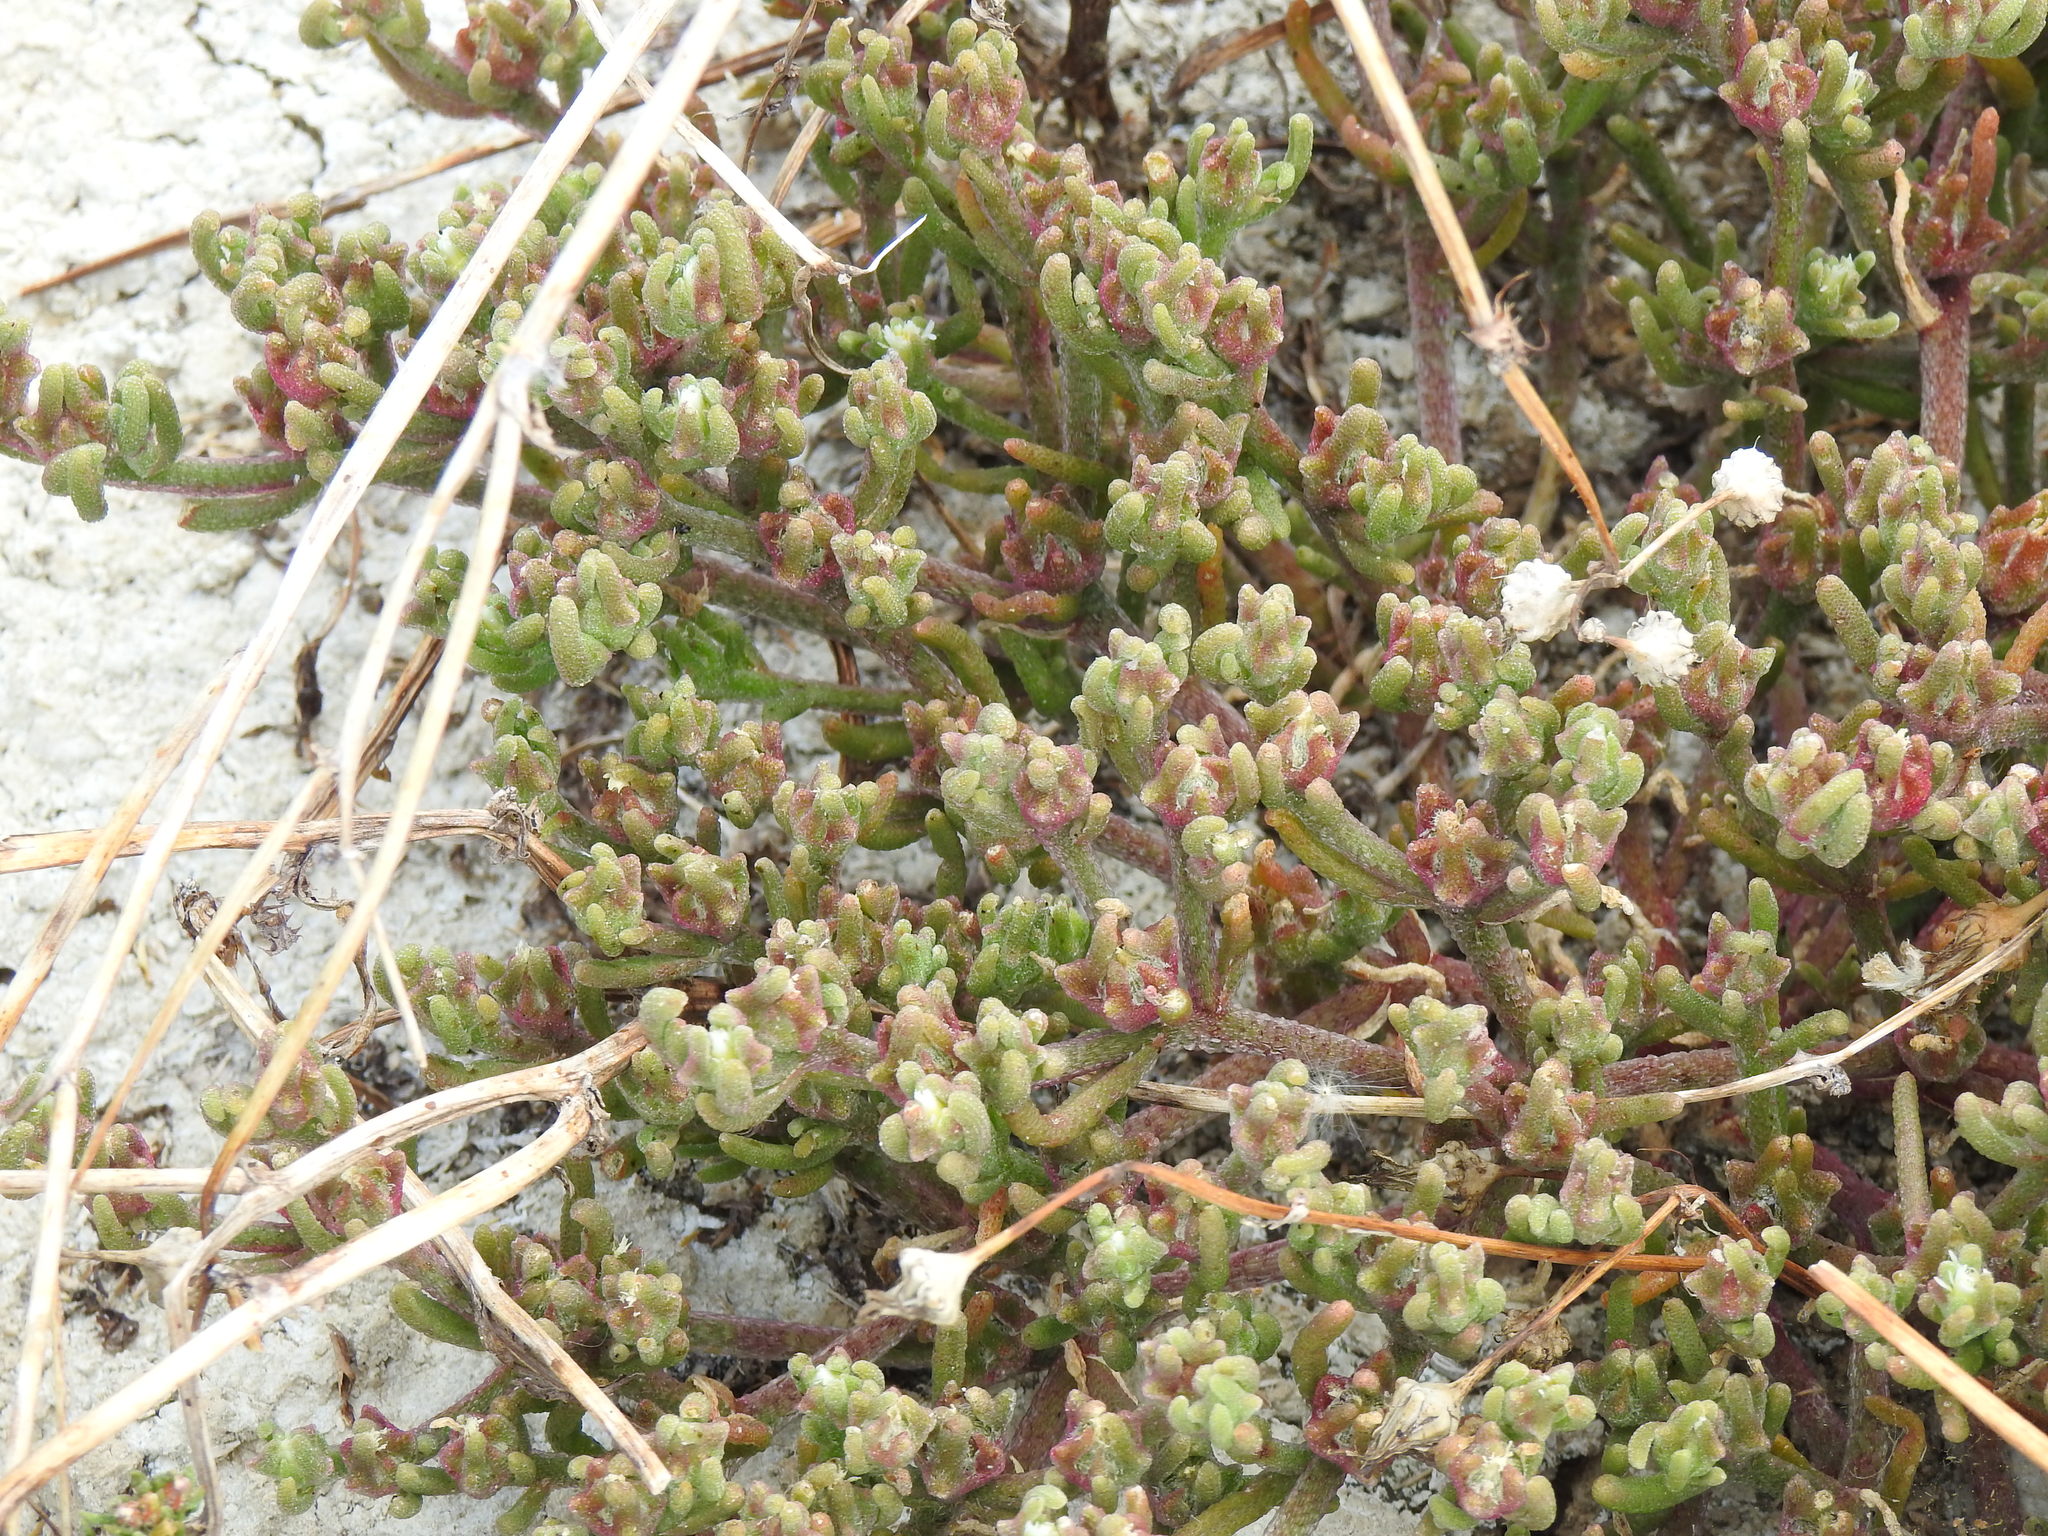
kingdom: Plantae
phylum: Tracheophyta
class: Magnoliopsida
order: Caryophyllales
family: Aizoaceae
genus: Mesembryanthemum
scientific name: Mesembryanthemum nodiflorum
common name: Slenderleaf iceplant
